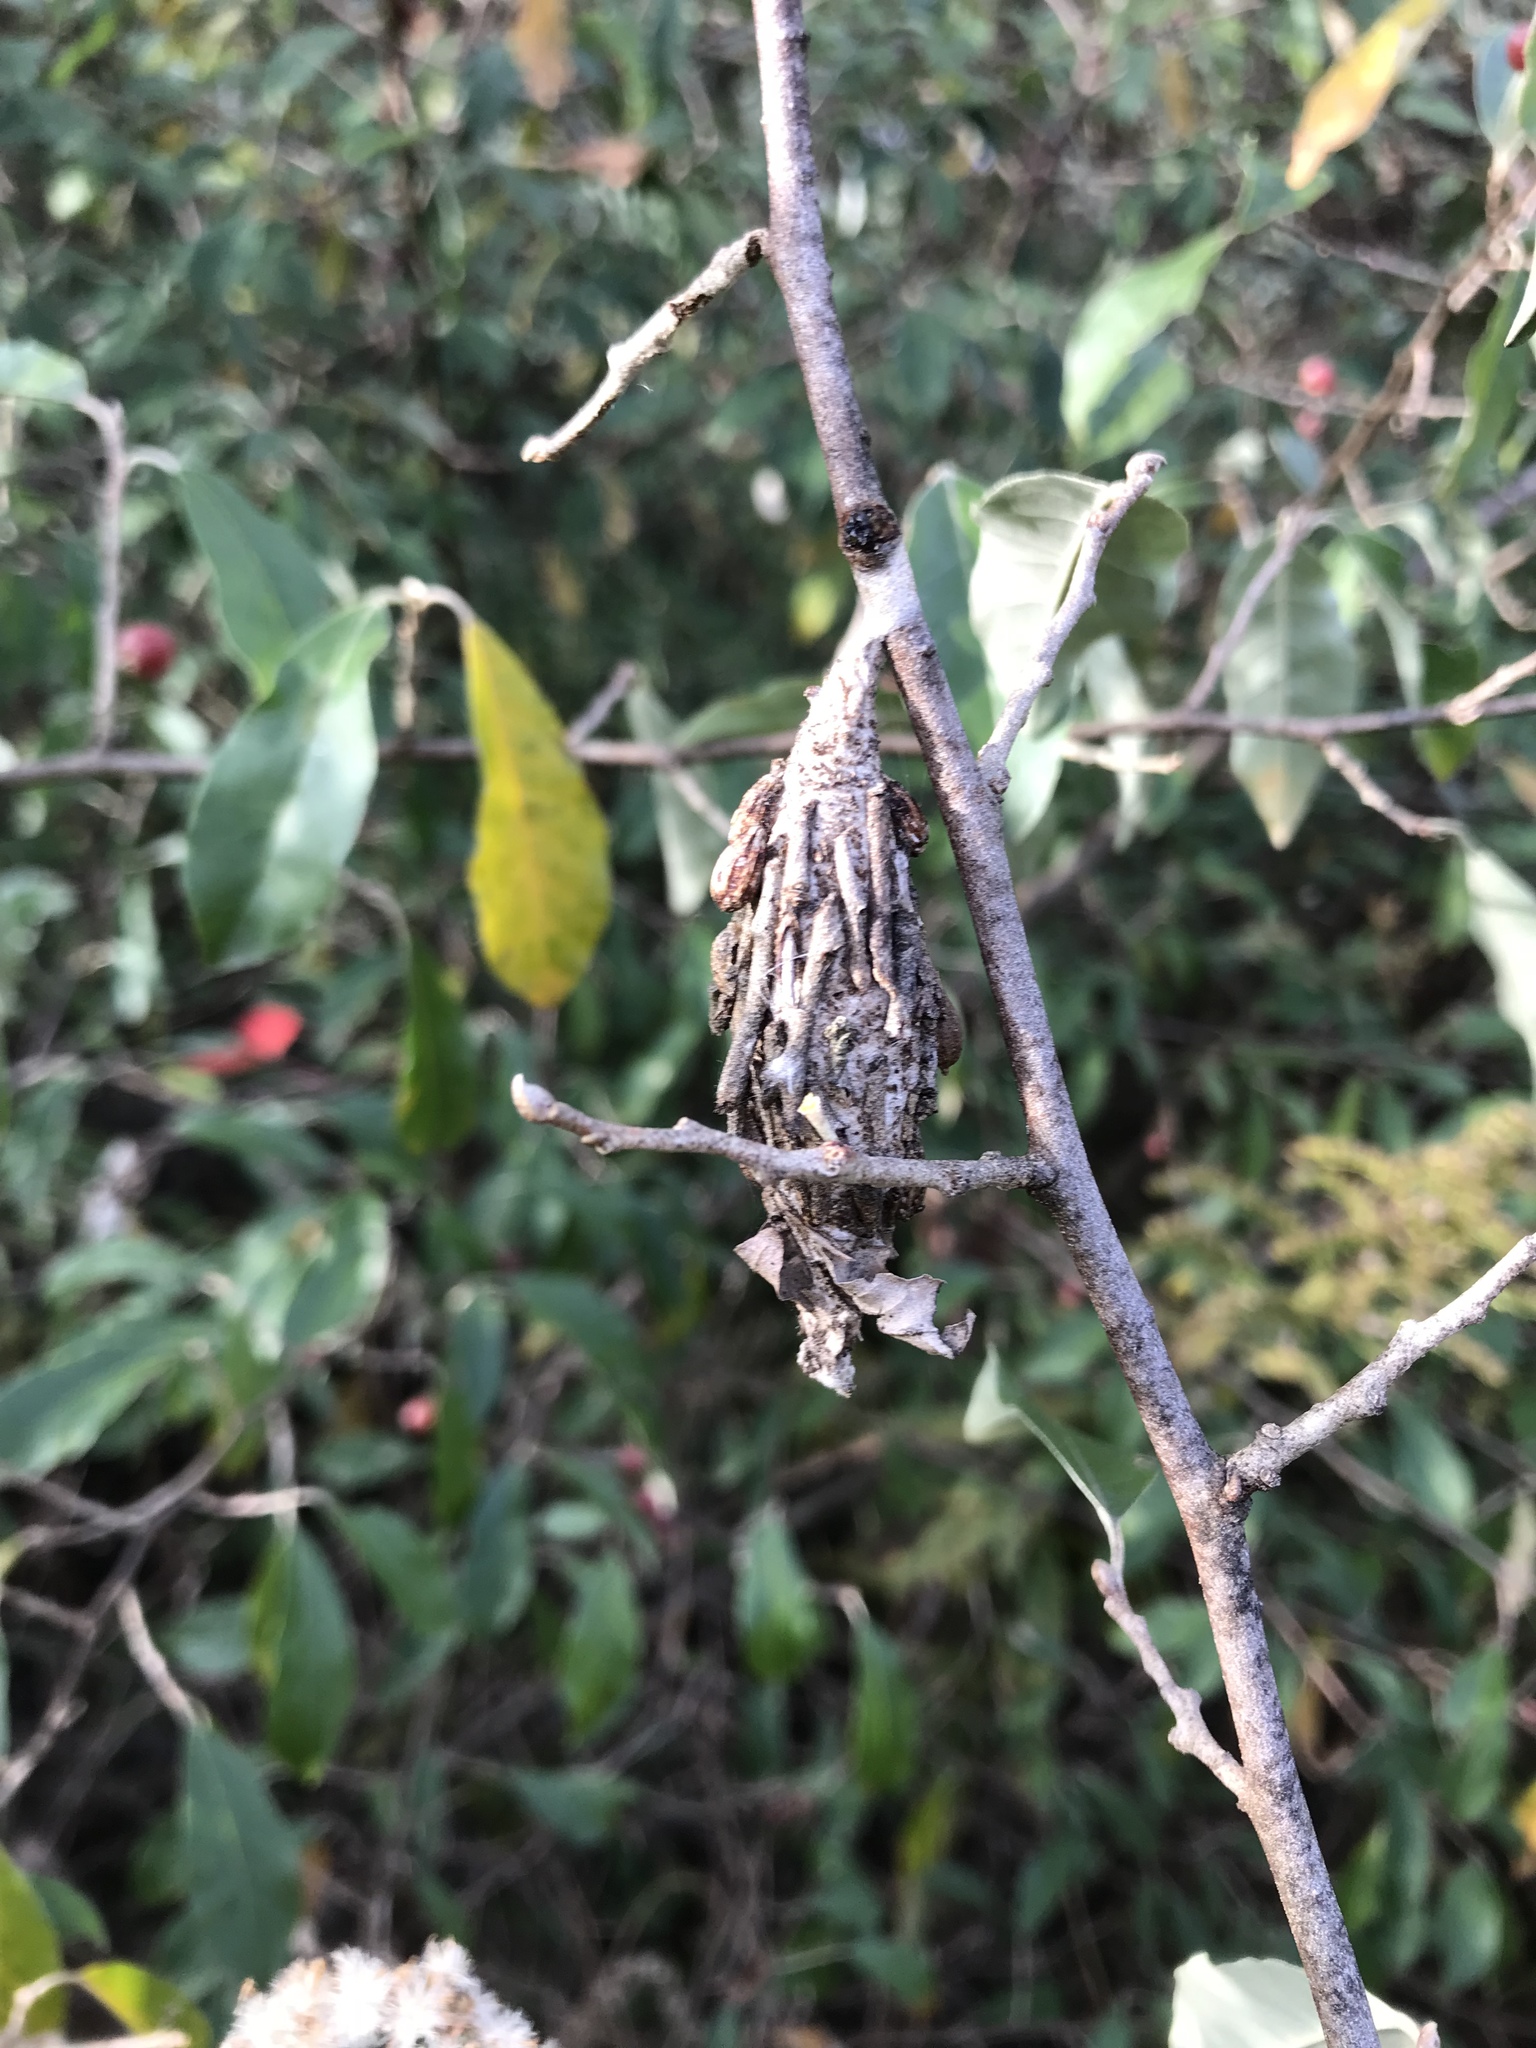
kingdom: Animalia
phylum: Arthropoda
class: Insecta
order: Lepidoptera
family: Psychidae
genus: Thyridopteryx
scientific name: Thyridopteryx ephemeraeformis
